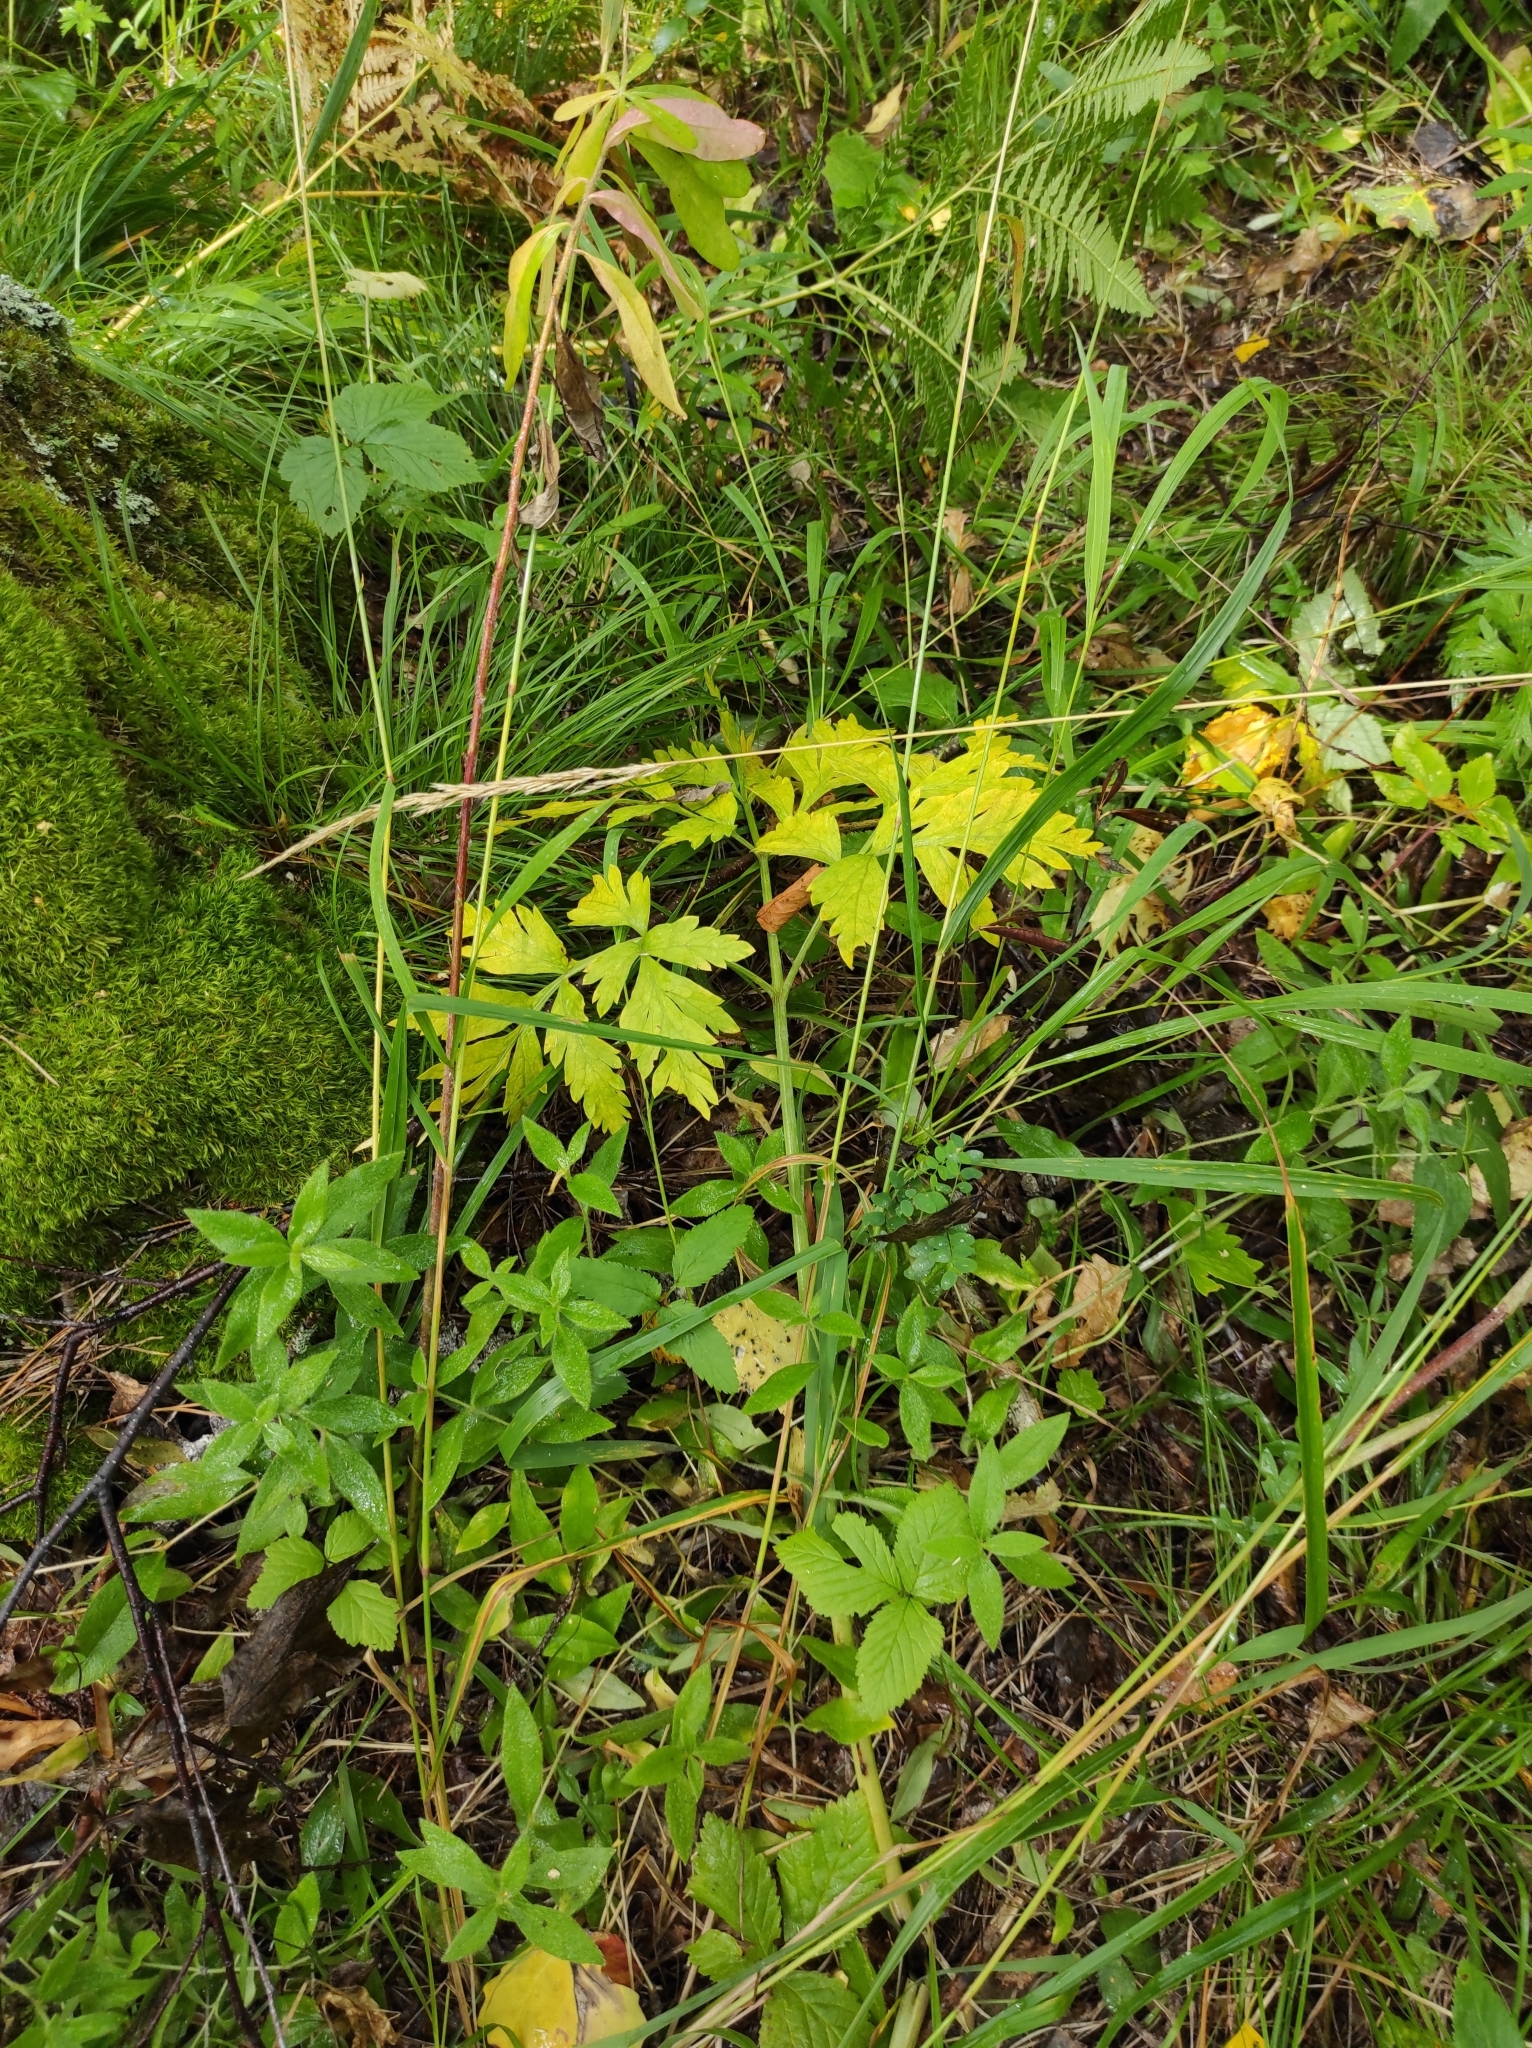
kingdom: Plantae
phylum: Tracheophyta
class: Magnoliopsida
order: Apiales
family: Apiaceae
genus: Pleurospermum
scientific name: Pleurospermum uralense
